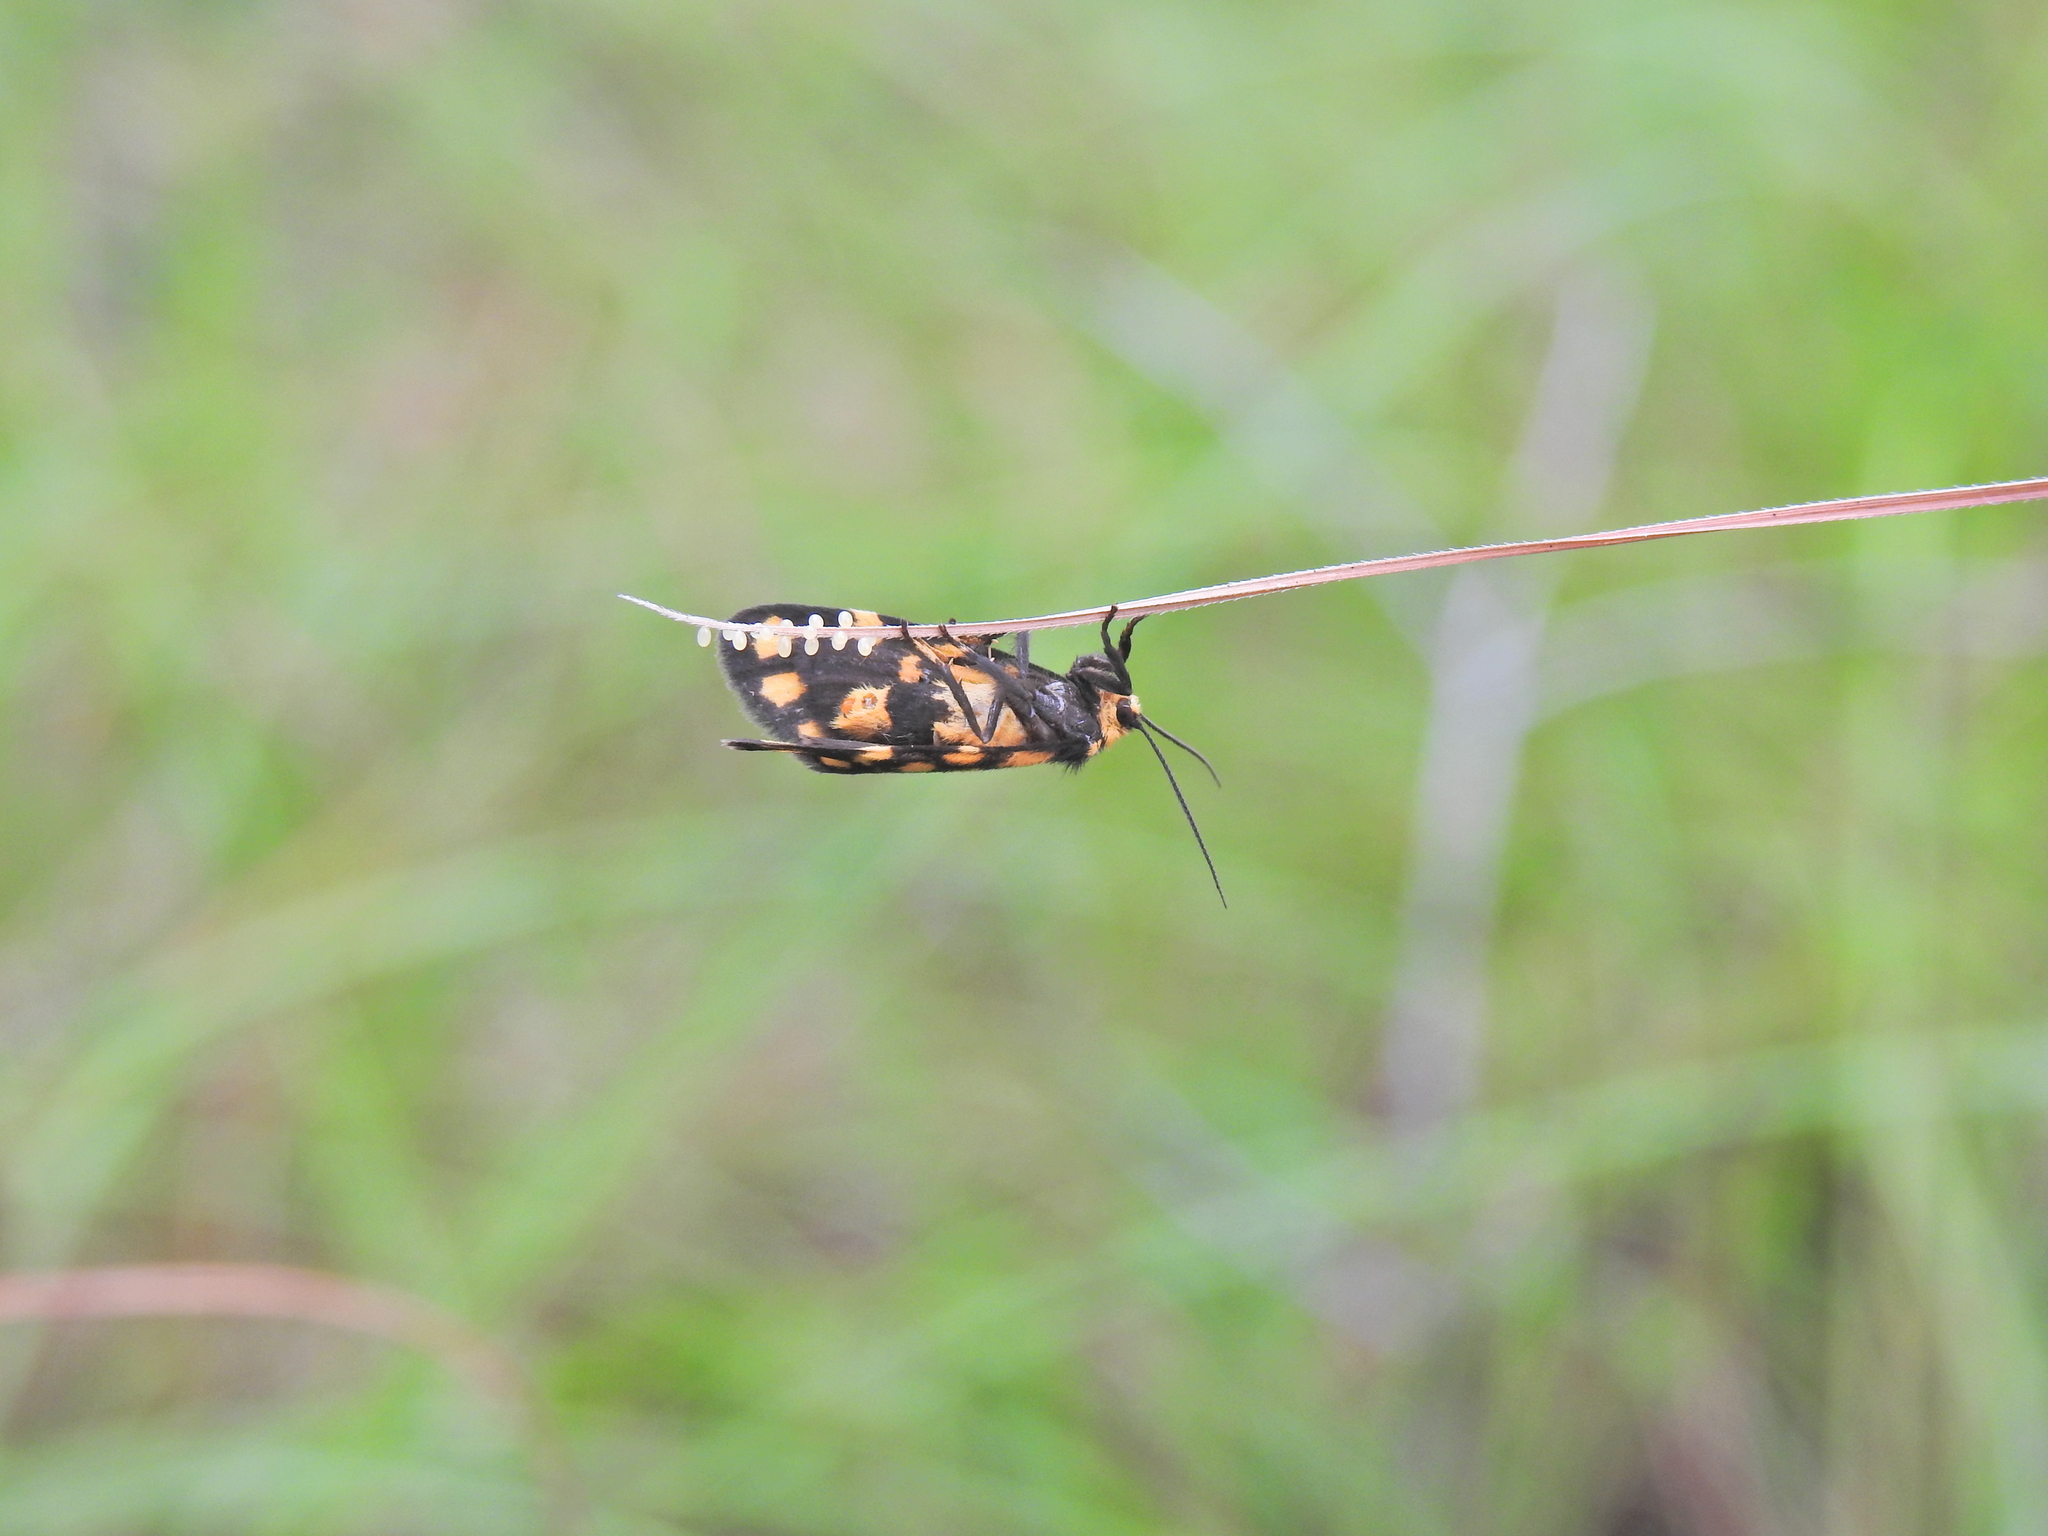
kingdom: Animalia
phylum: Arthropoda
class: Insecta
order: Lepidoptera
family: Erebidae
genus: Asura
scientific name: Asura lydia
